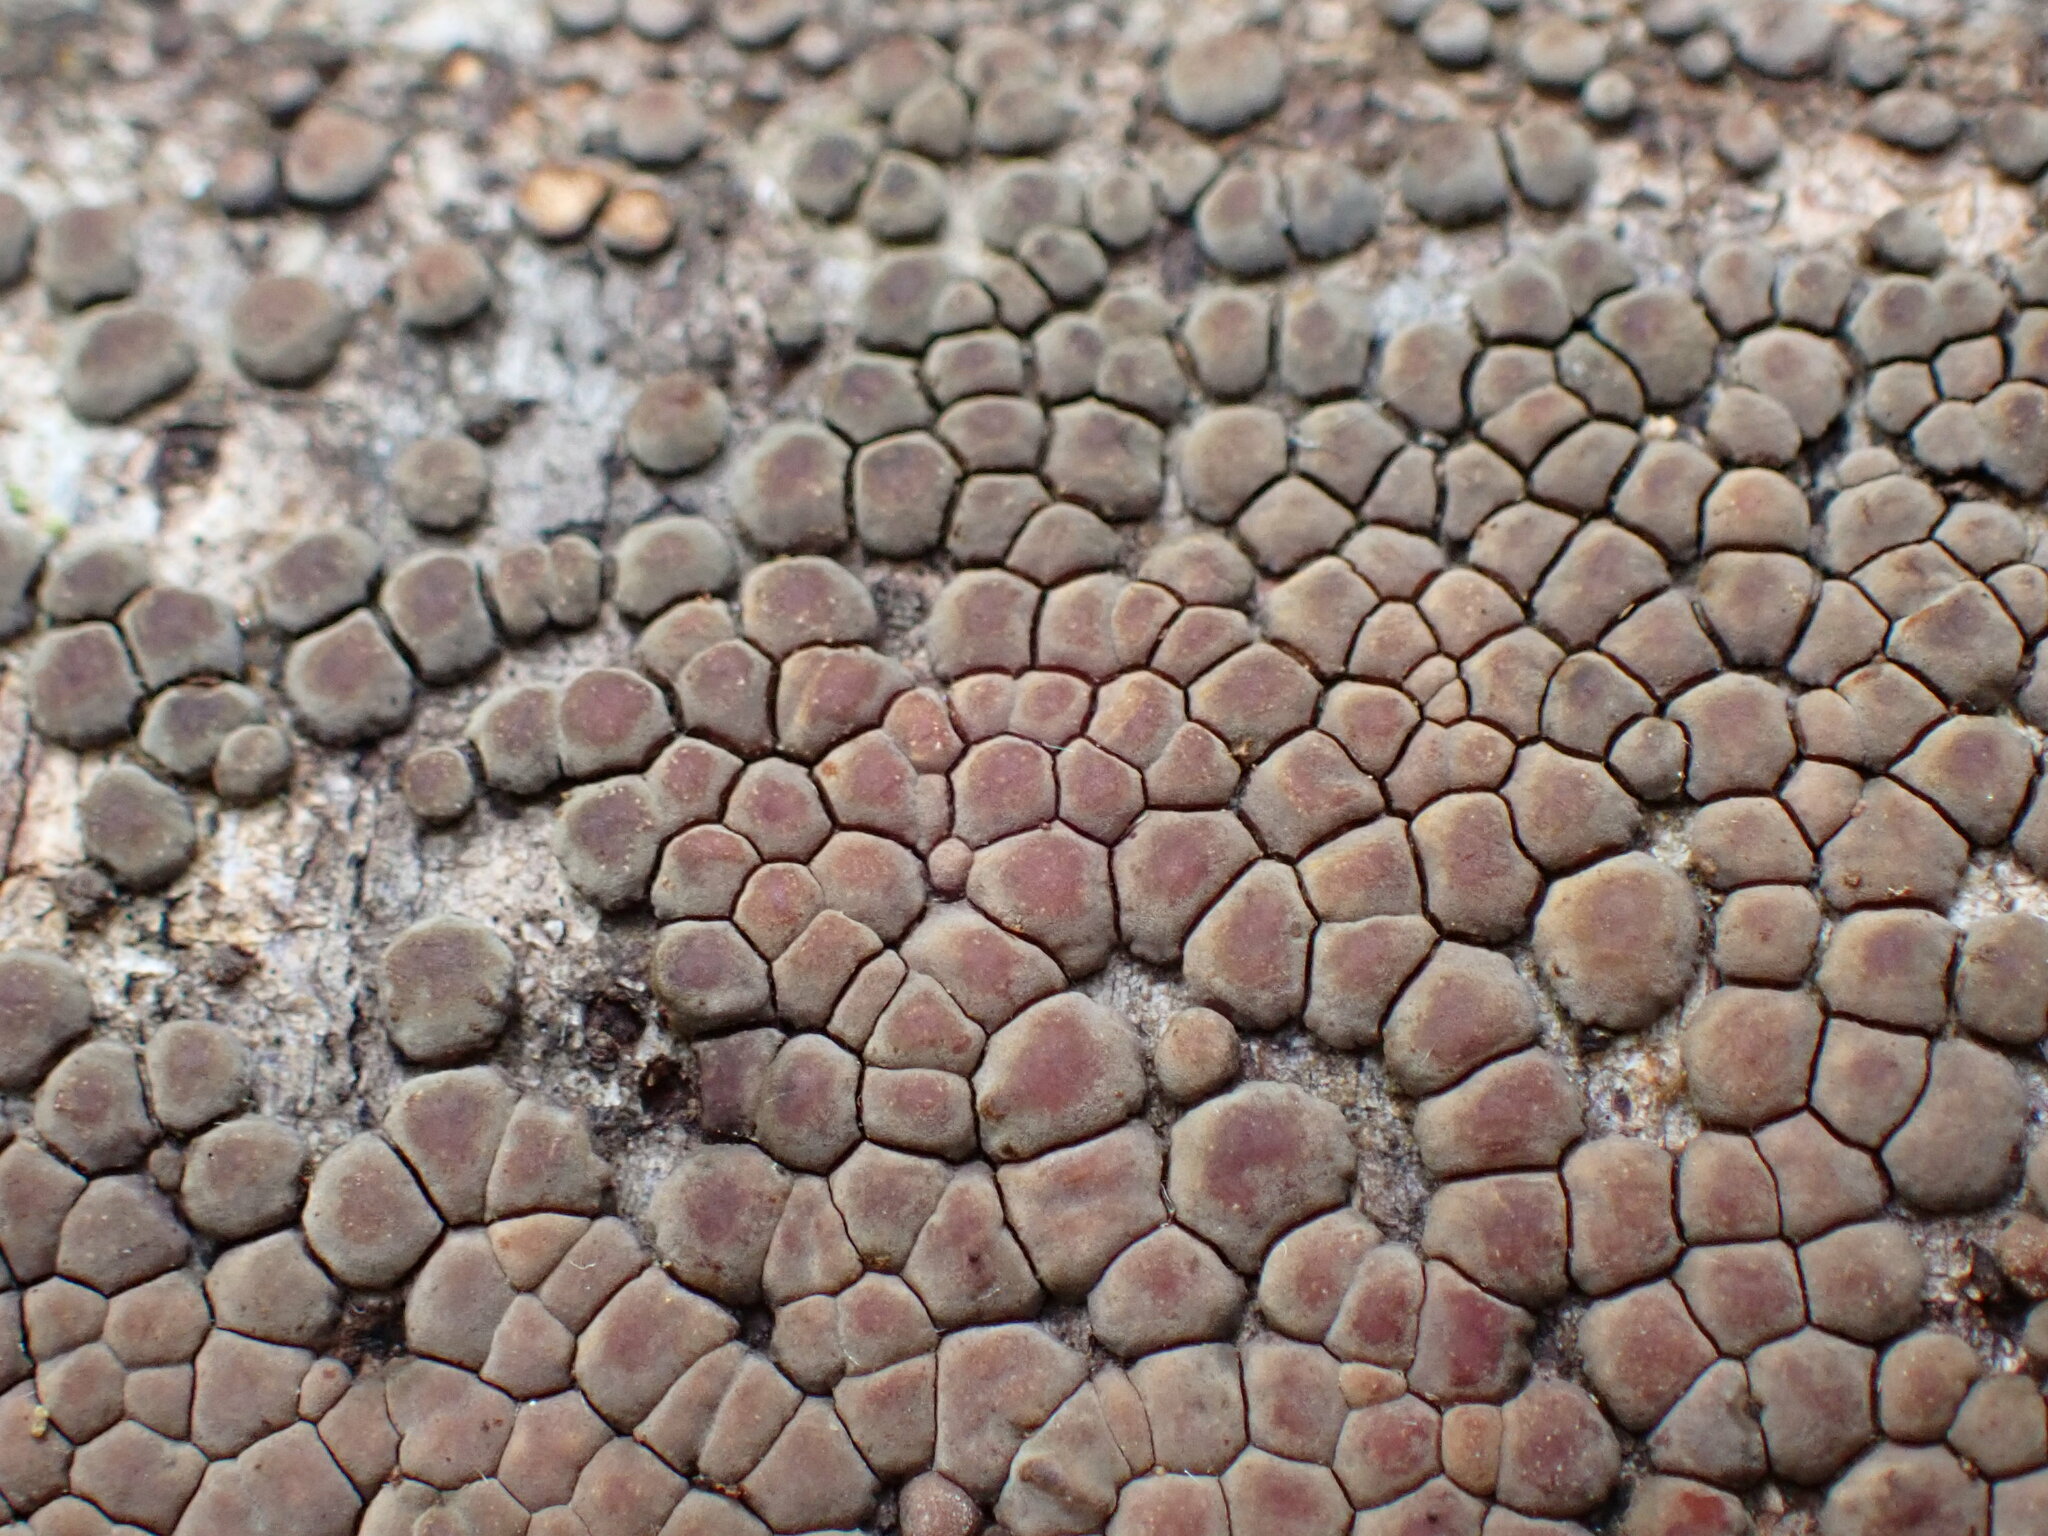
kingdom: Fungi
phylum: Basidiomycota
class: Agaricomycetes
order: Russulales
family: Stereaceae
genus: Aleurodiscus
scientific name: Aleurodiscus berggrenii
